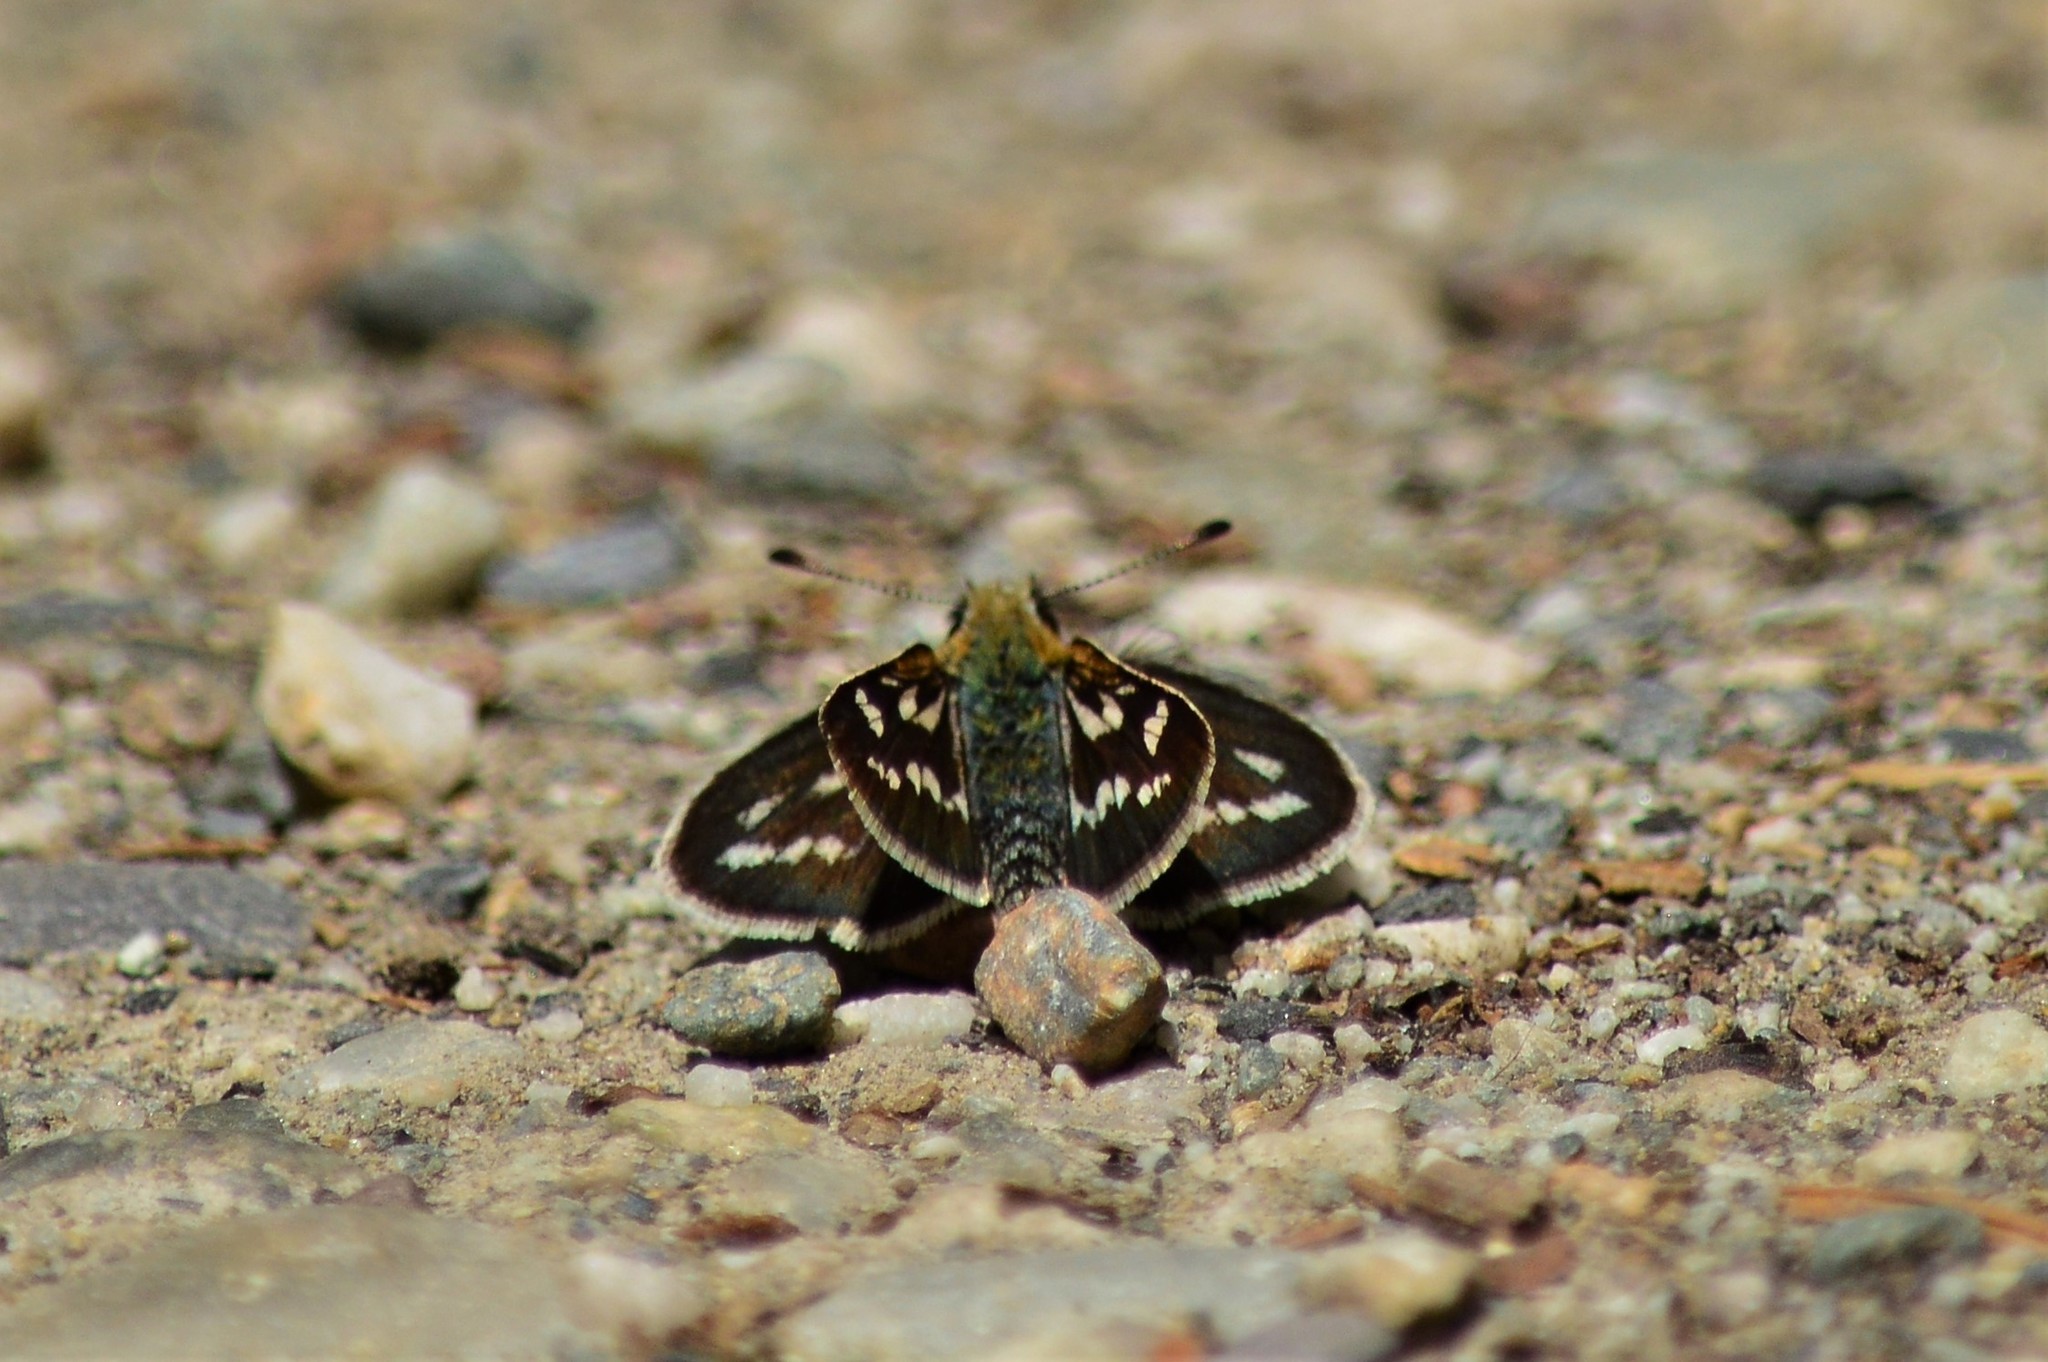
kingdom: Animalia
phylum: Arthropoda
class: Insecta
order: Lepidoptera
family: Hesperiidae
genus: Taractrocera
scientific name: Taractrocera danna
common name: Himalayan grass dart
